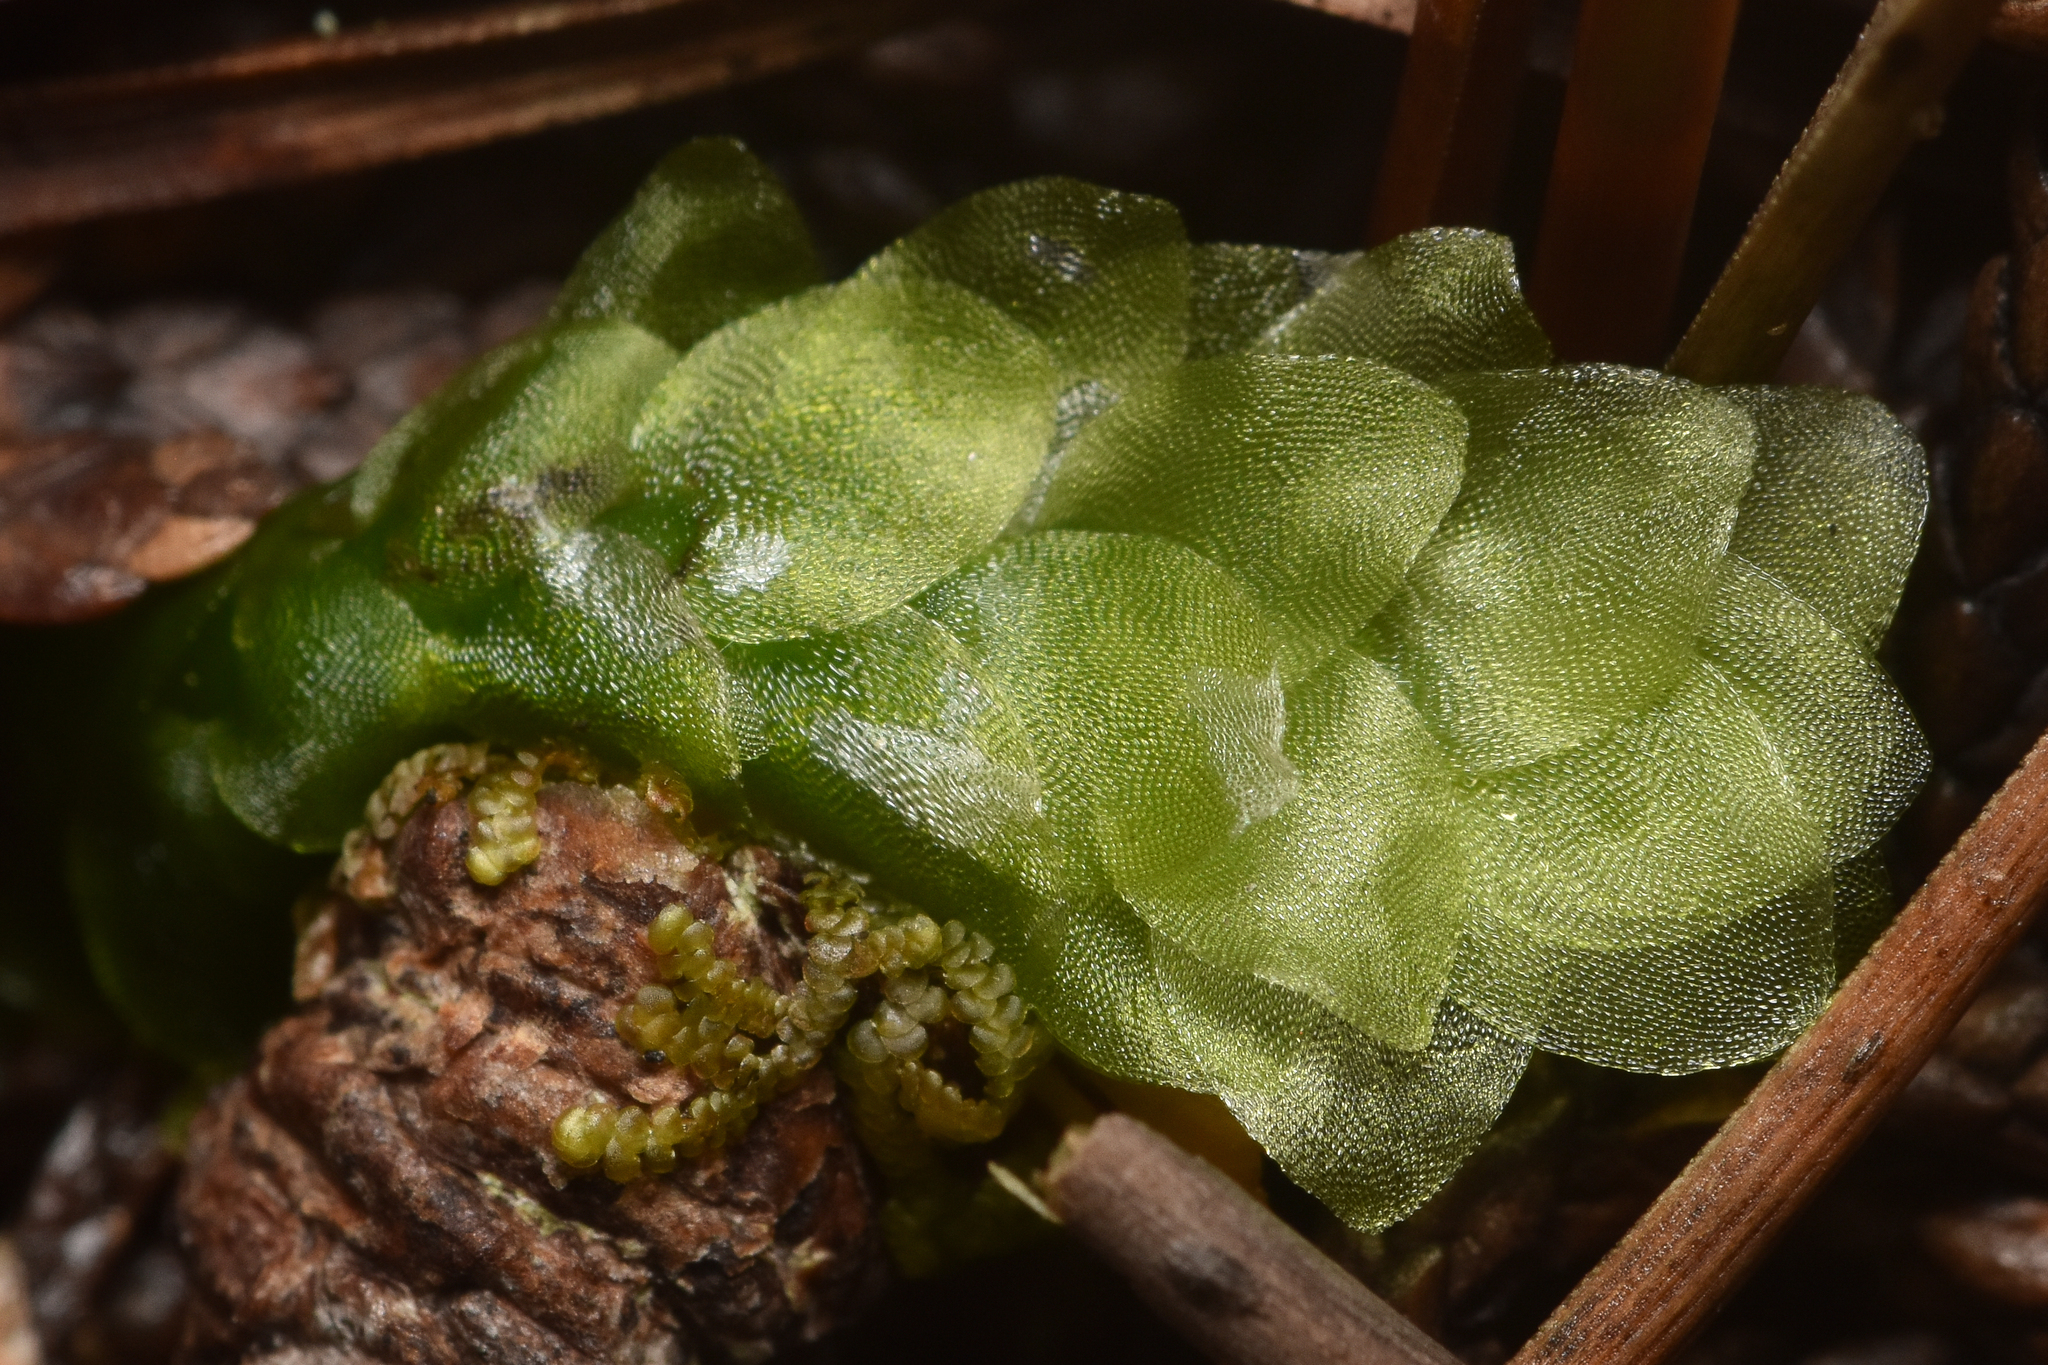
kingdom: Plantae
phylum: Bryophyta
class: Bryopsida
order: Hookeriales
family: Hookeriaceae
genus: Hookeria
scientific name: Hookeria lucens
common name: Shining hookeria
